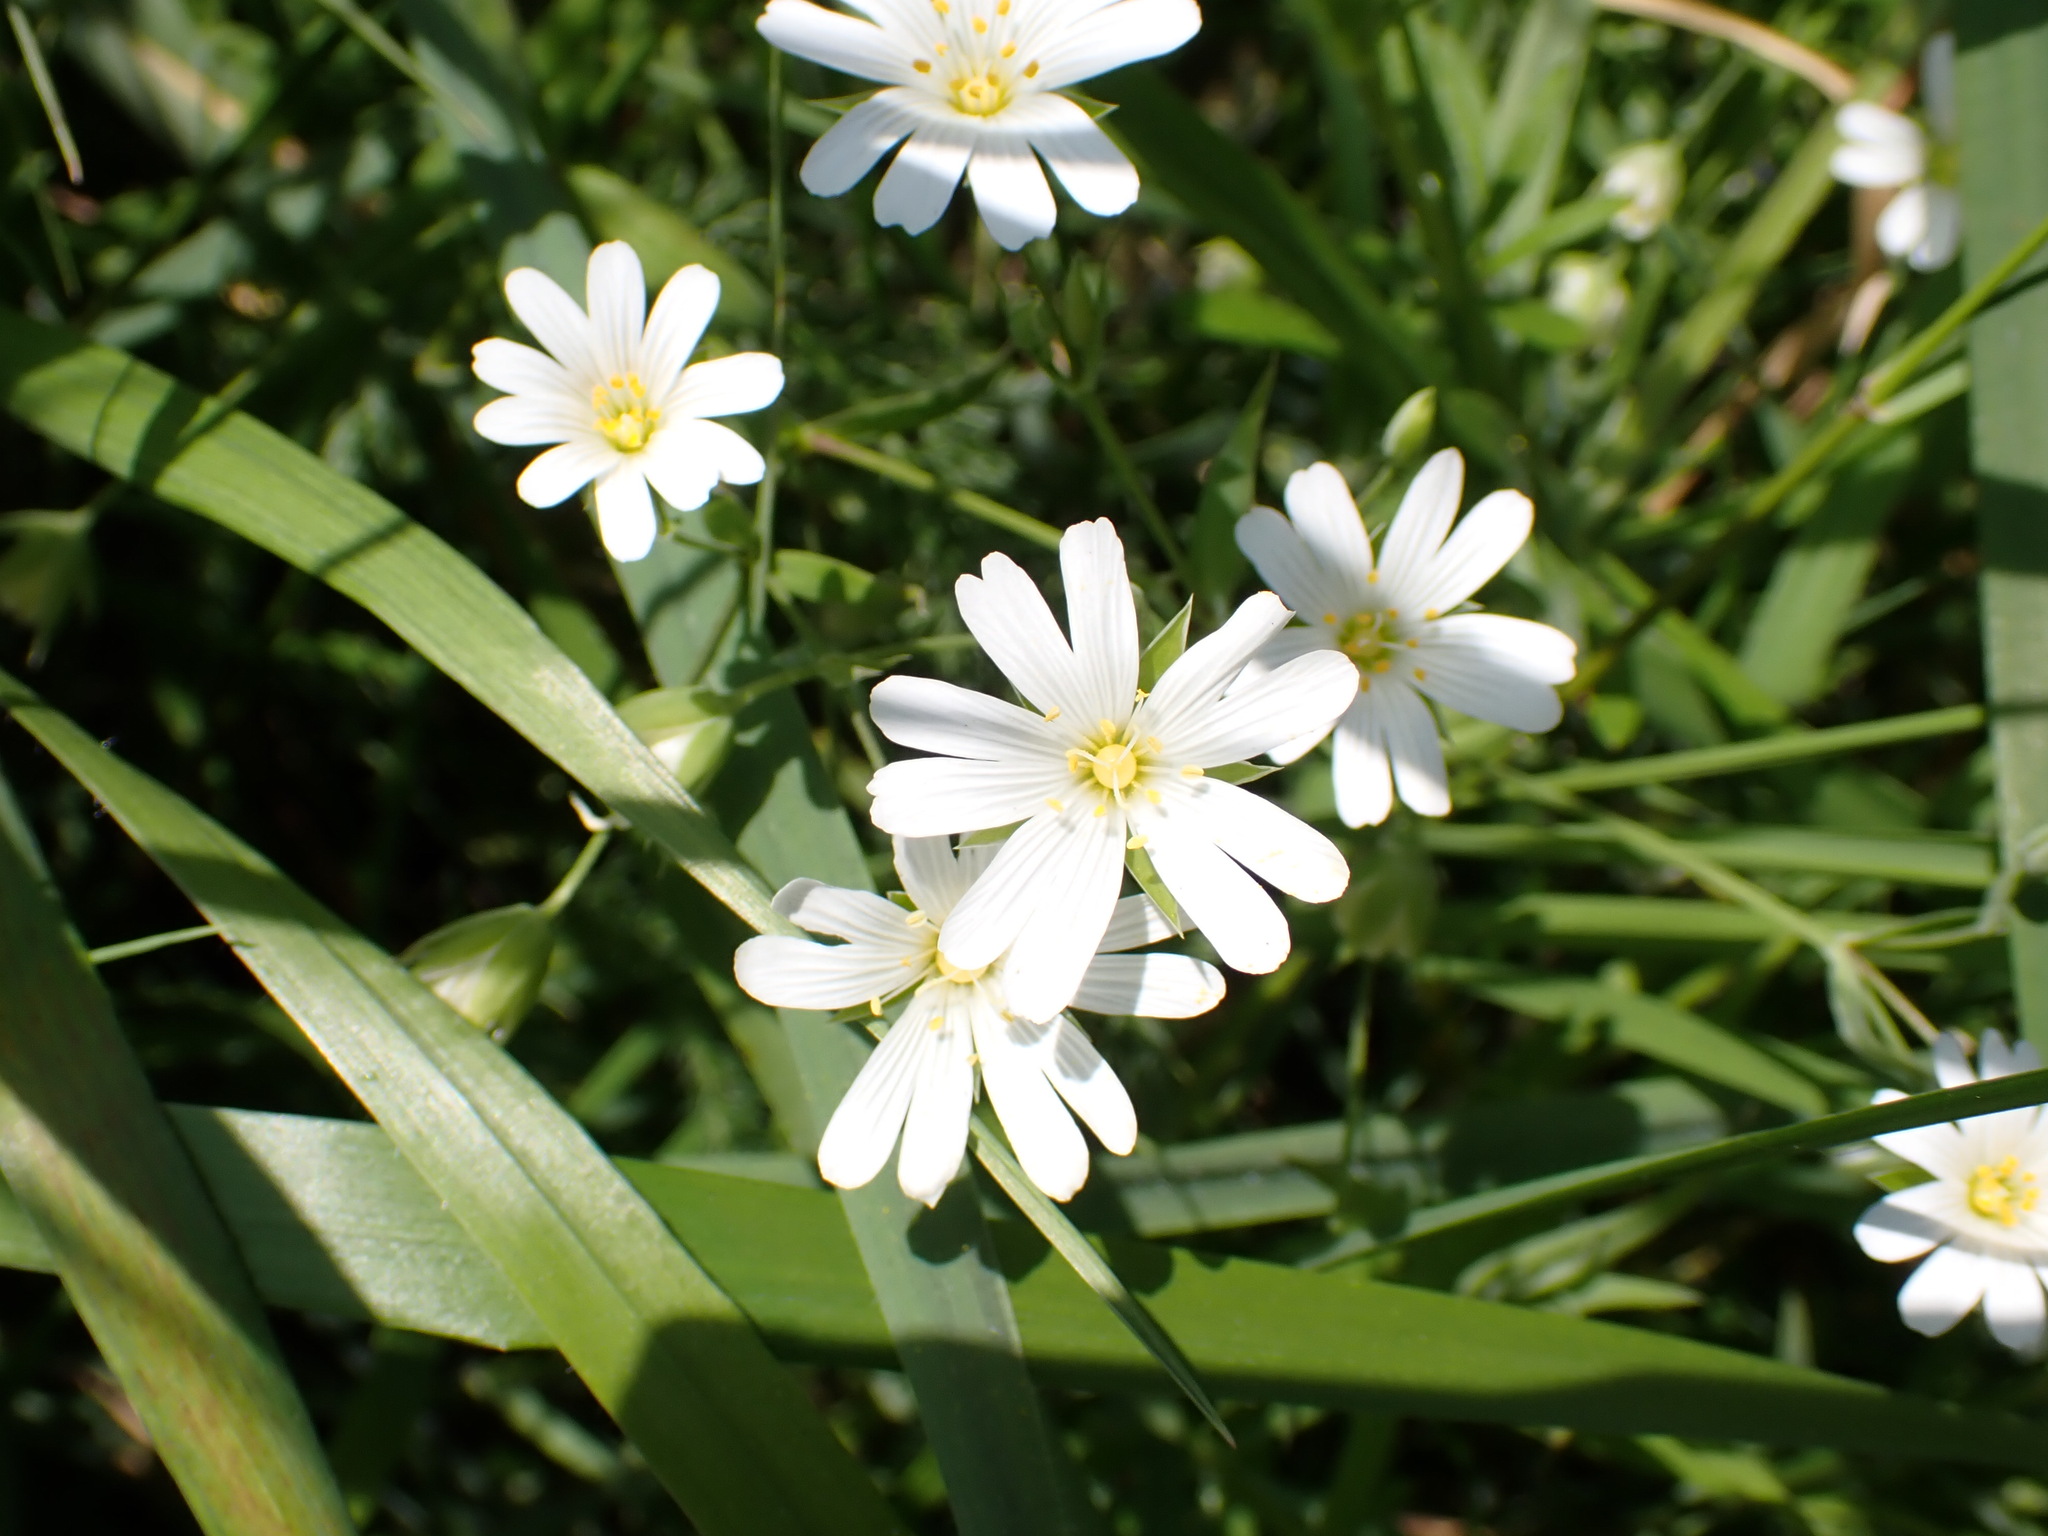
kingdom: Plantae
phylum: Tracheophyta
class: Magnoliopsida
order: Caryophyllales
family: Caryophyllaceae
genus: Rabelera
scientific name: Rabelera holostea
